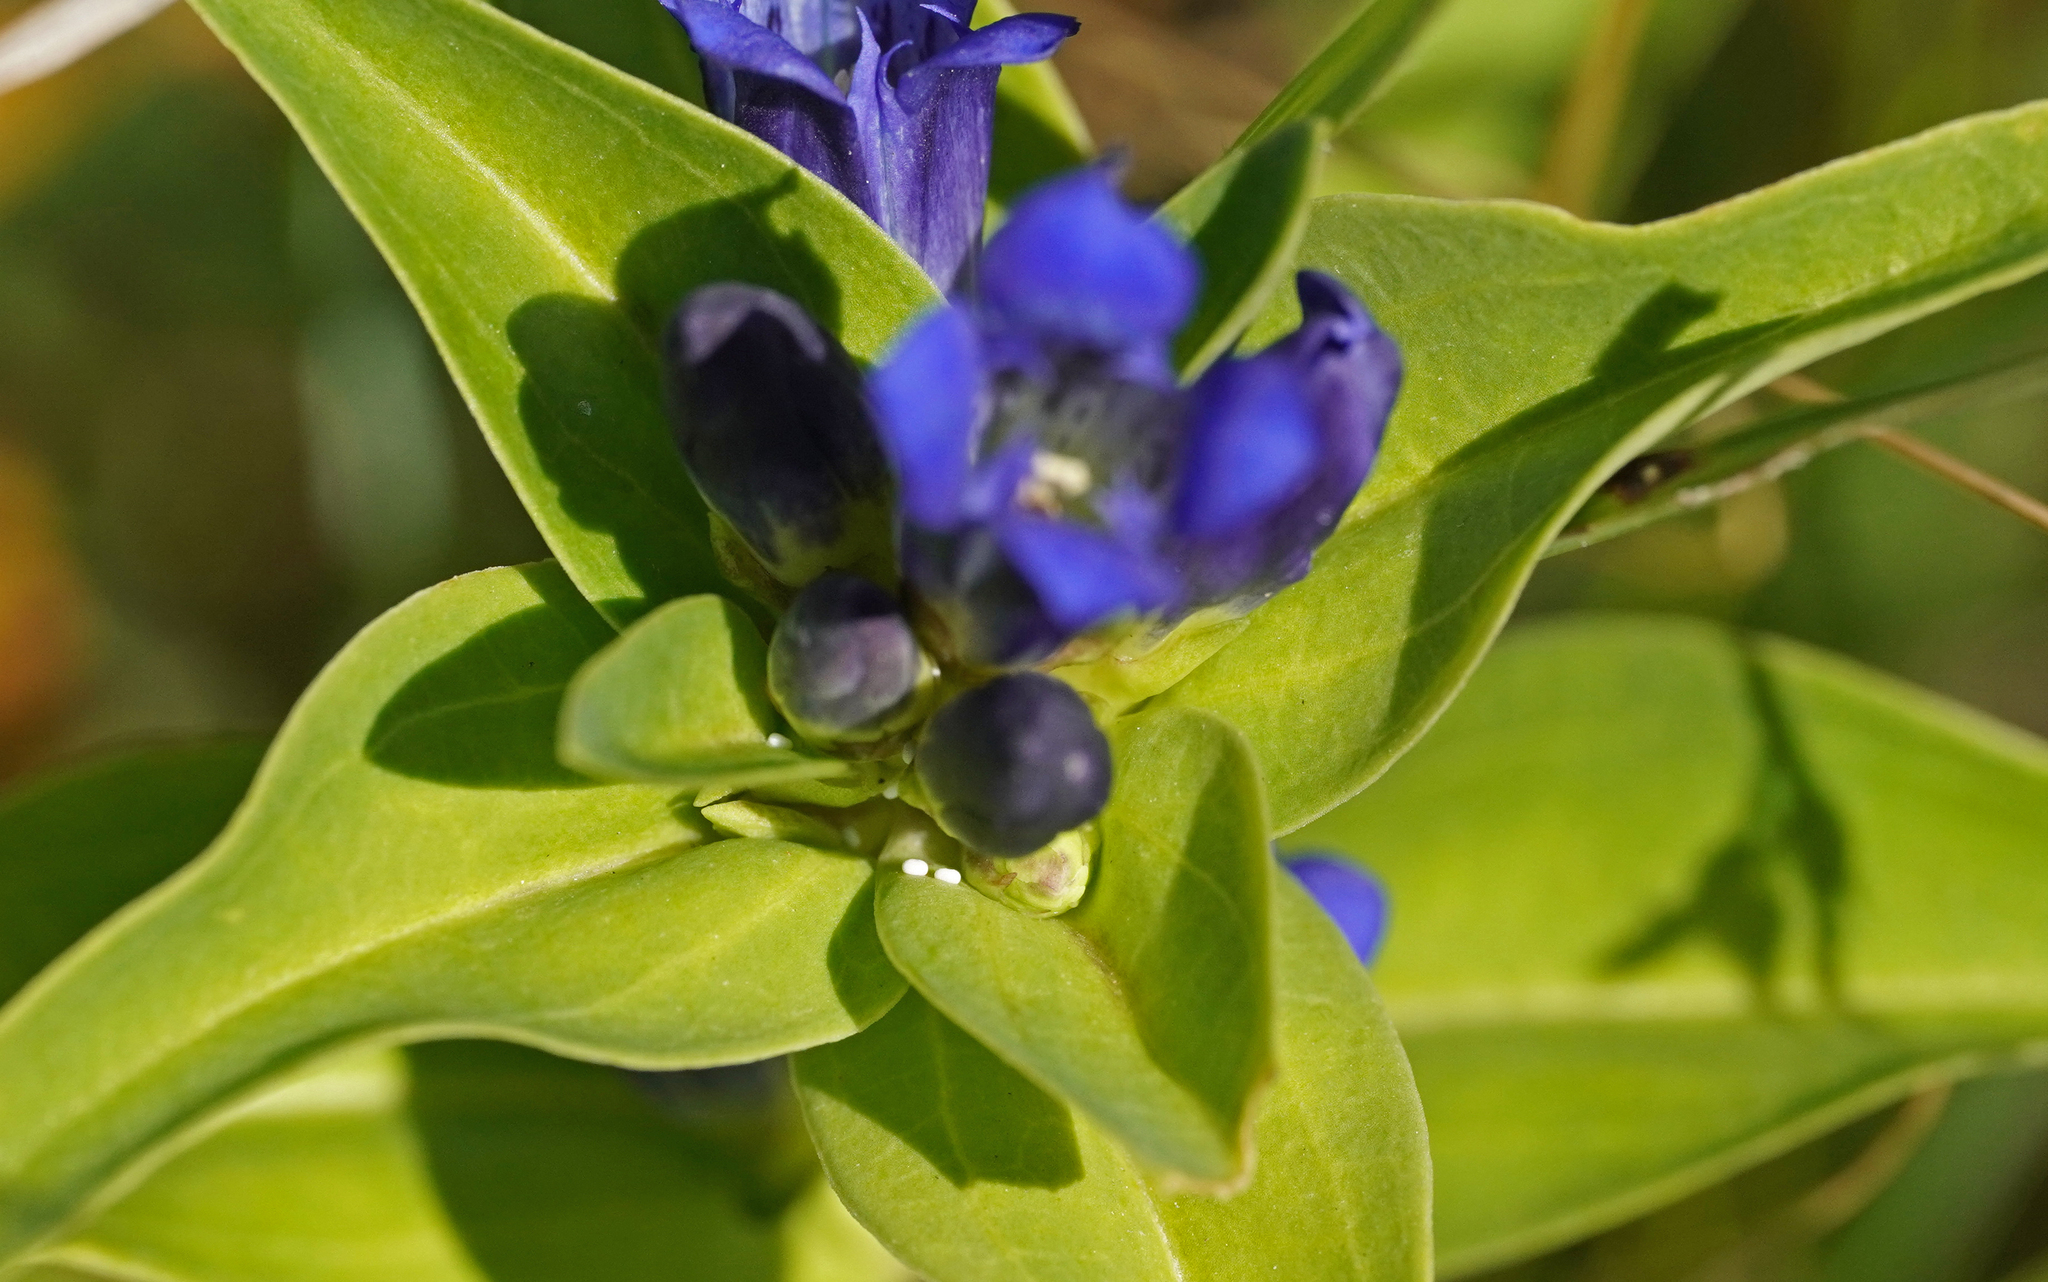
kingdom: Animalia
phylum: Arthropoda
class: Insecta
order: Lepidoptera
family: Lycaenidae
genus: Maculinea
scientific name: Maculinea alcon
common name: Alcon blue
